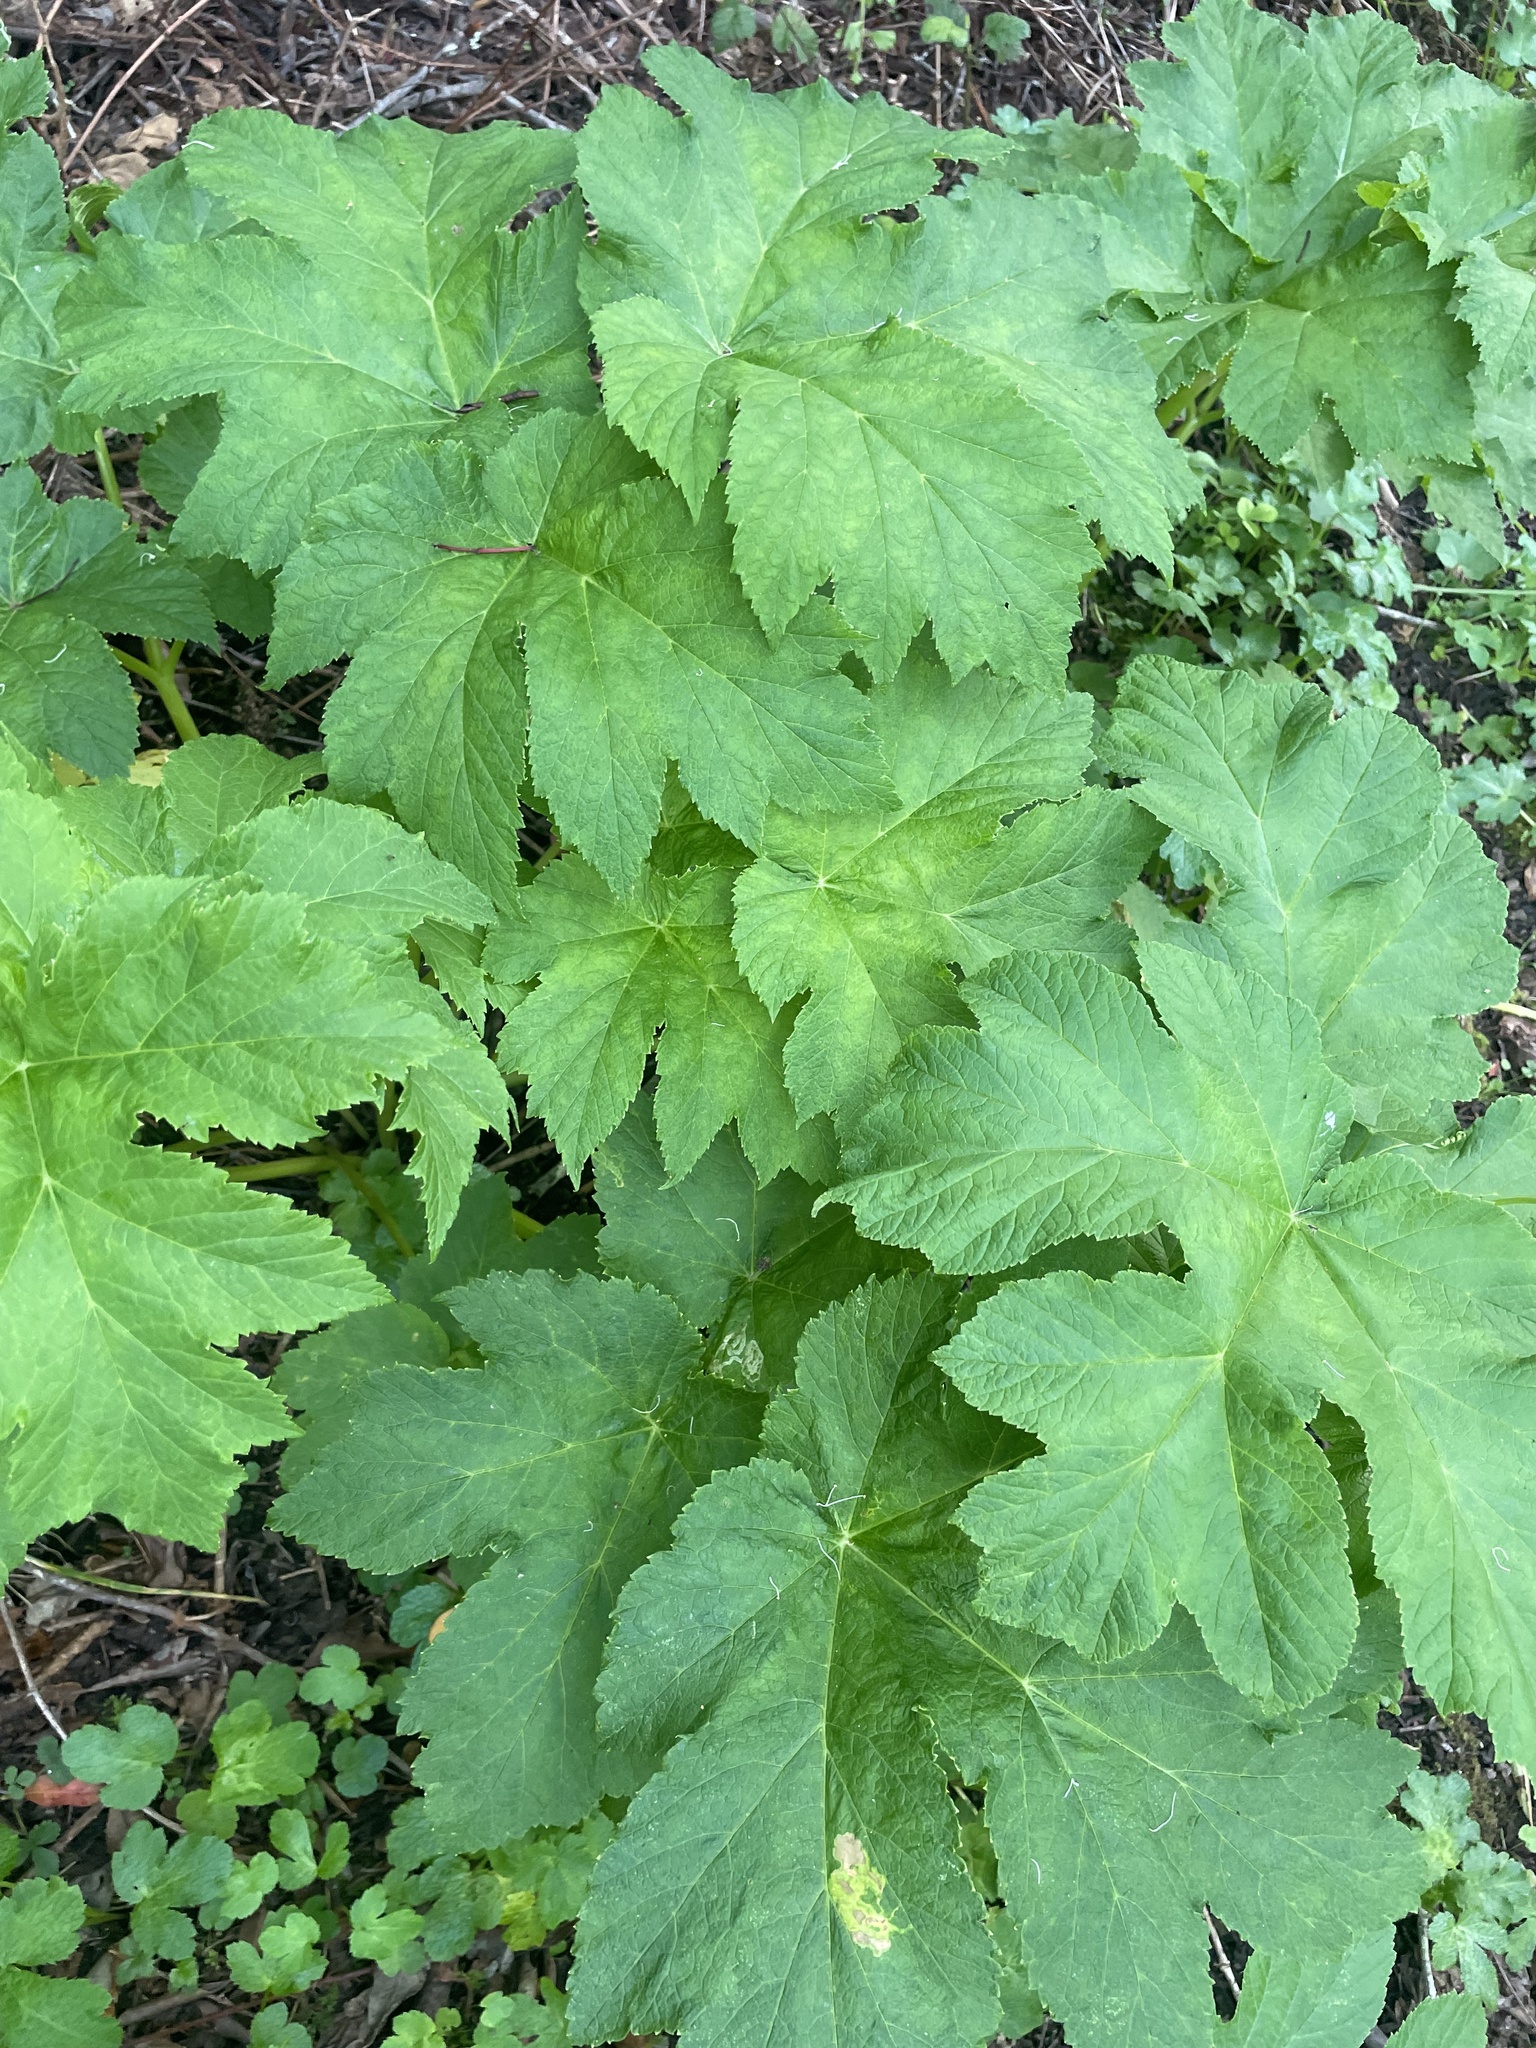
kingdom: Plantae
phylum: Tracheophyta
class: Magnoliopsida
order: Apiales
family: Apiaceae
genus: Heracleum
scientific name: Heracleum maximum
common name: American cow parsnip
